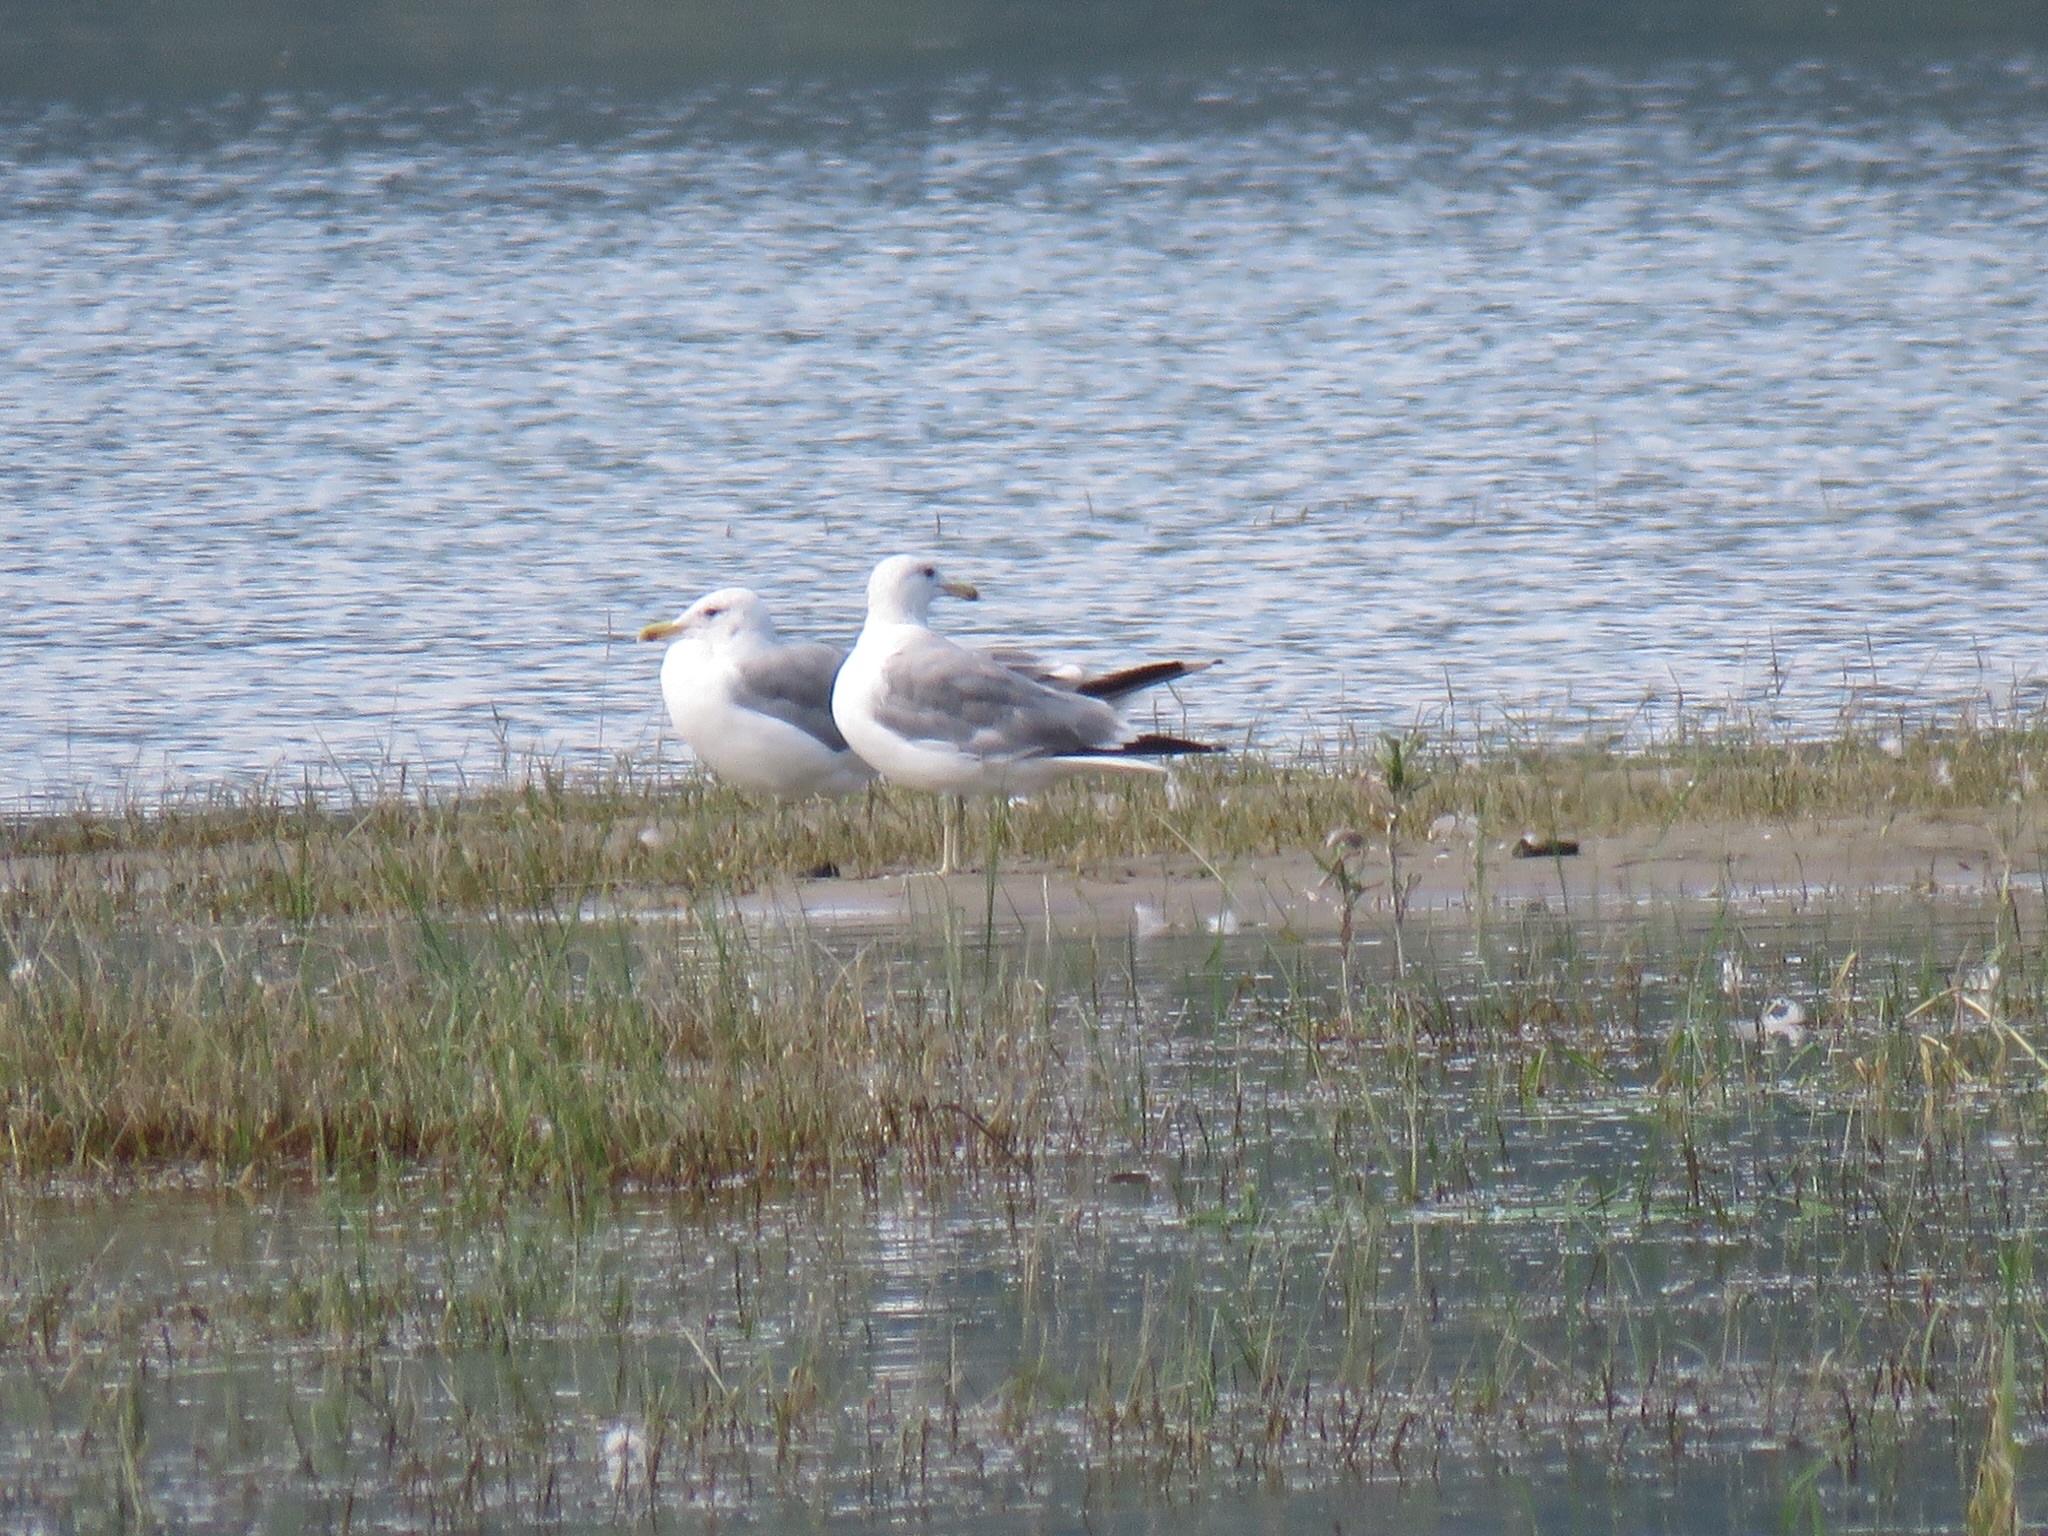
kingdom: Animalia
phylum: Chordata
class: Aves
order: Charadriiformes
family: Laridae
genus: Larus
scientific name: Larus californicus
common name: California gull
